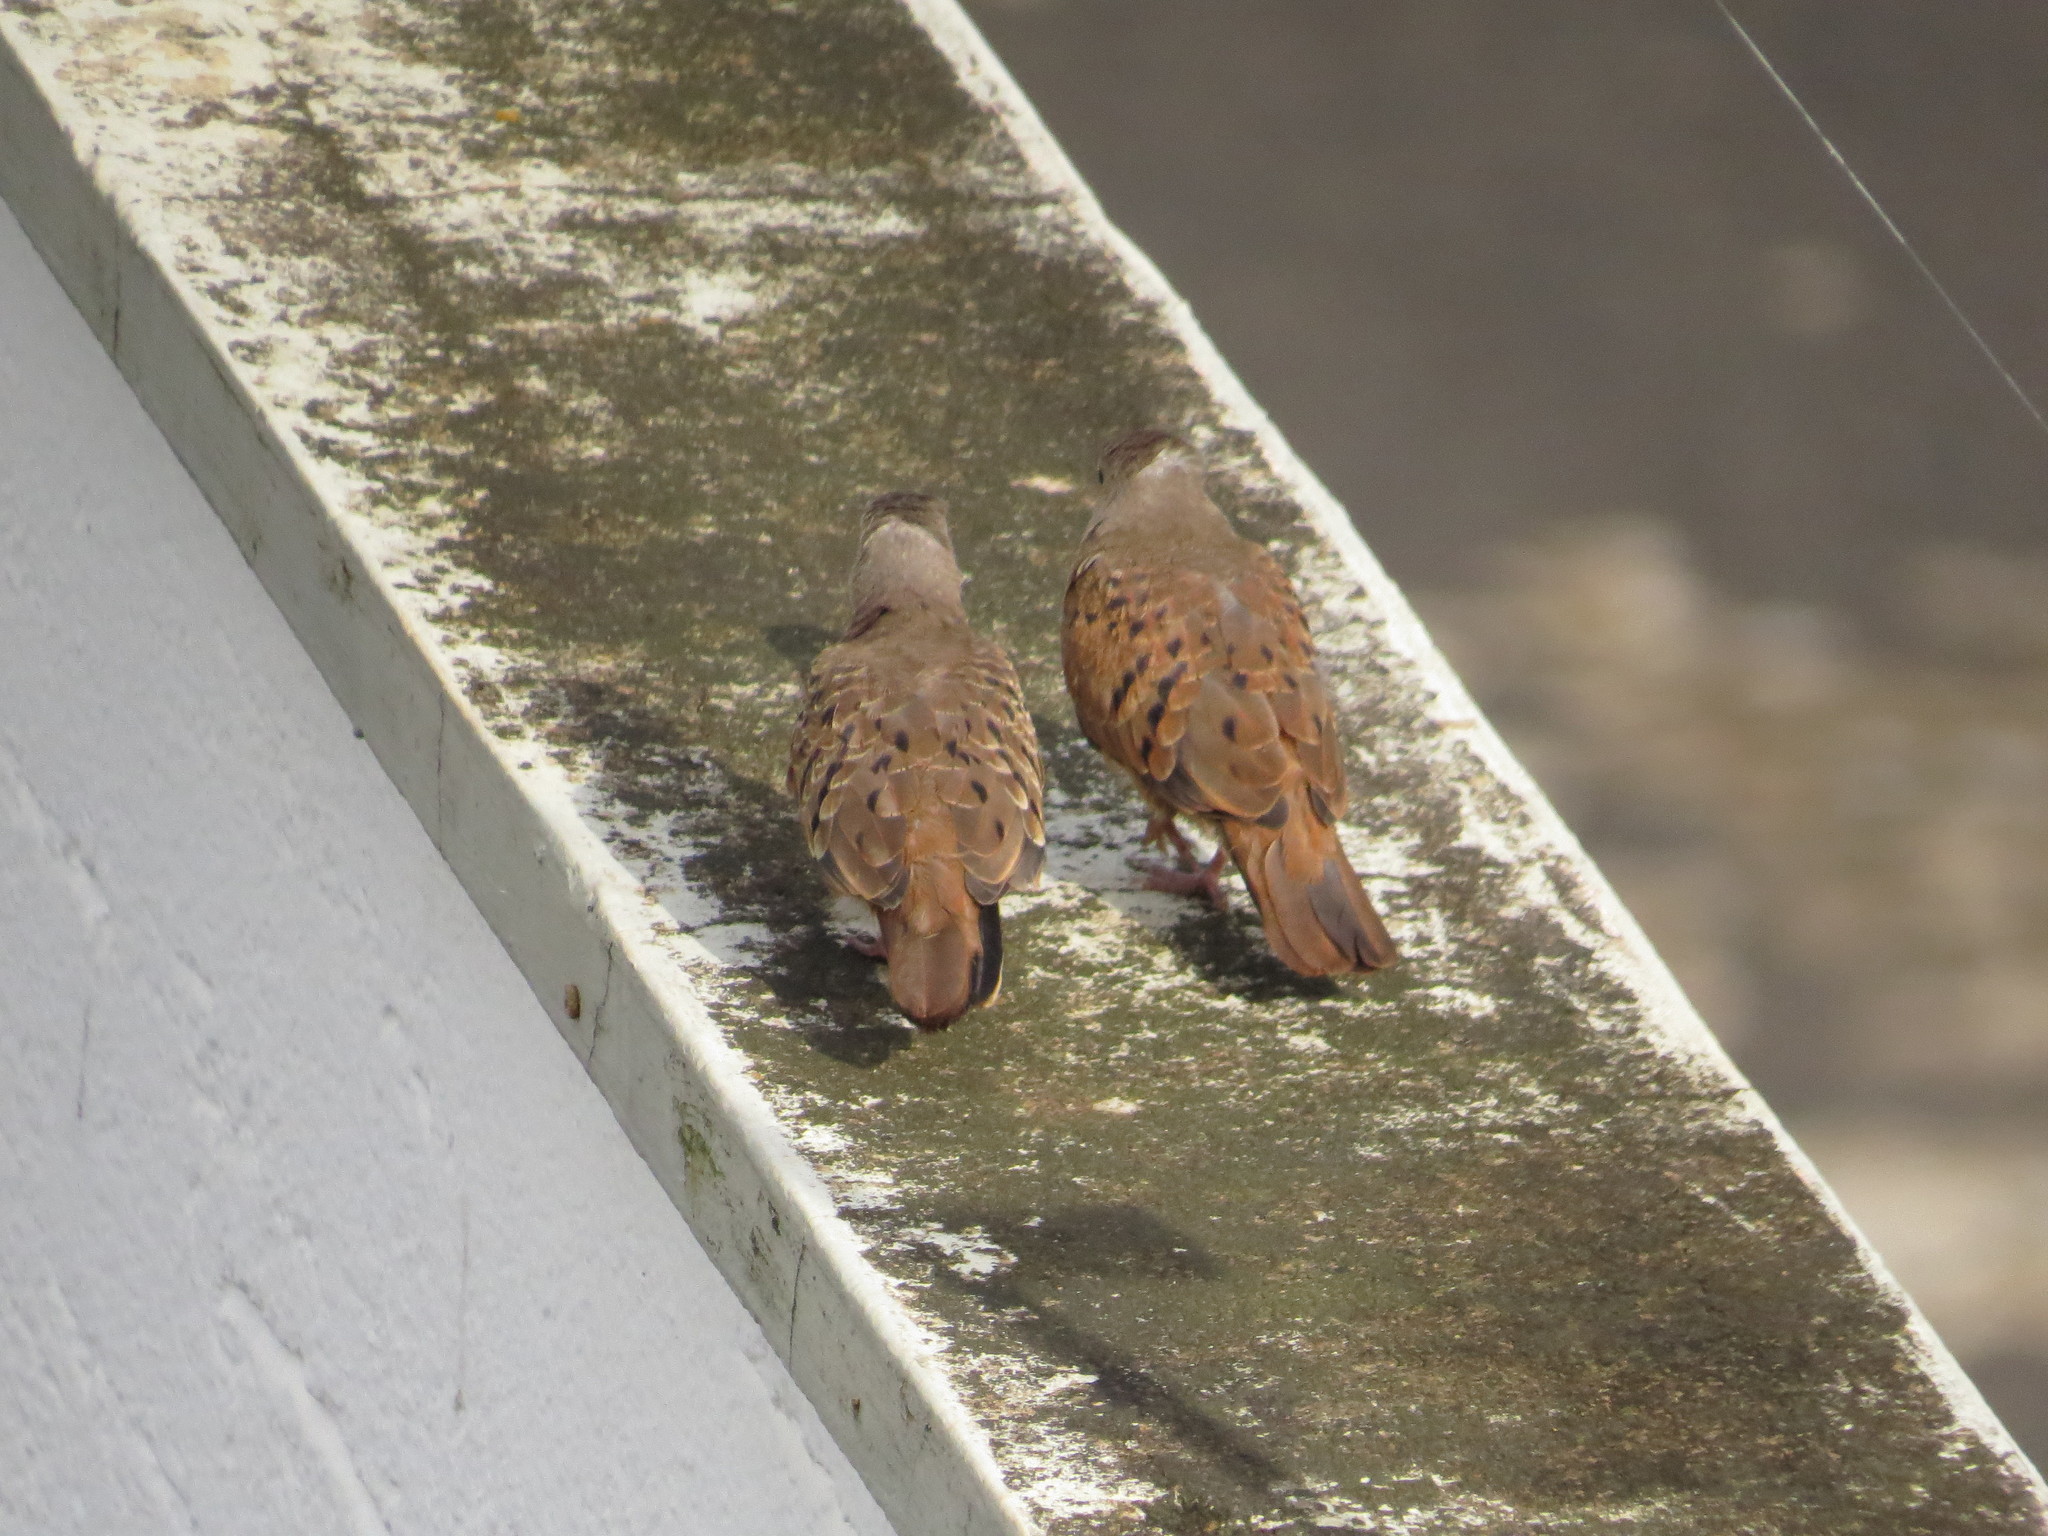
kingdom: Animalia
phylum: Chordata
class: Aves
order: Columbiformes
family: Columbidae
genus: Columbina
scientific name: Columbina talpacoti
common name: Ruddy ground dove
